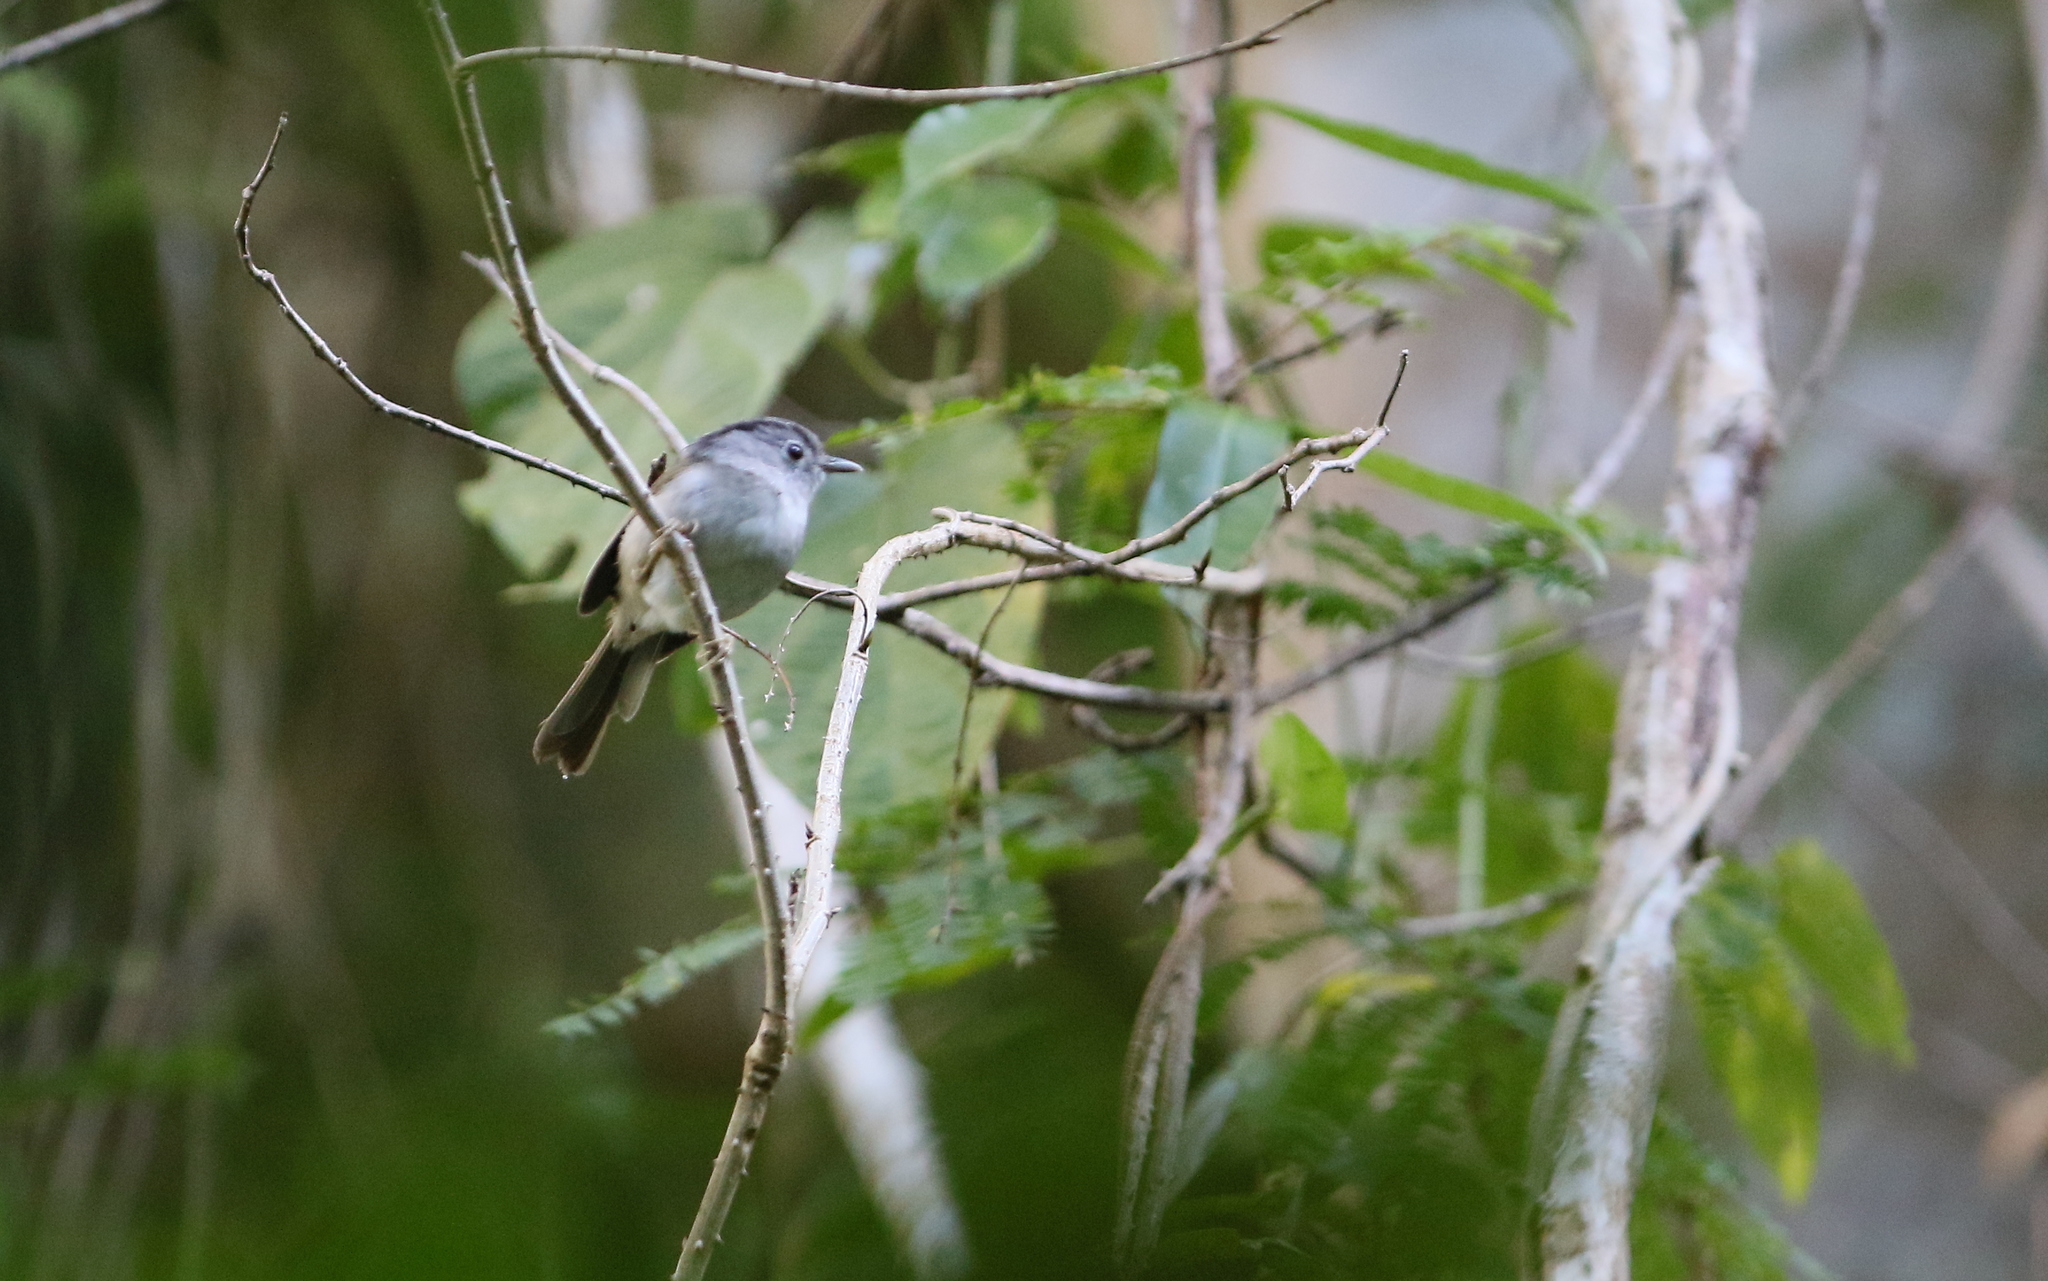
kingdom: Animalia
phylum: Chordata
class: Aves
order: Passeriformes
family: Pellorneidae
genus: Alcippe
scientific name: Alcippe peracensis
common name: Mountain fulvetta
